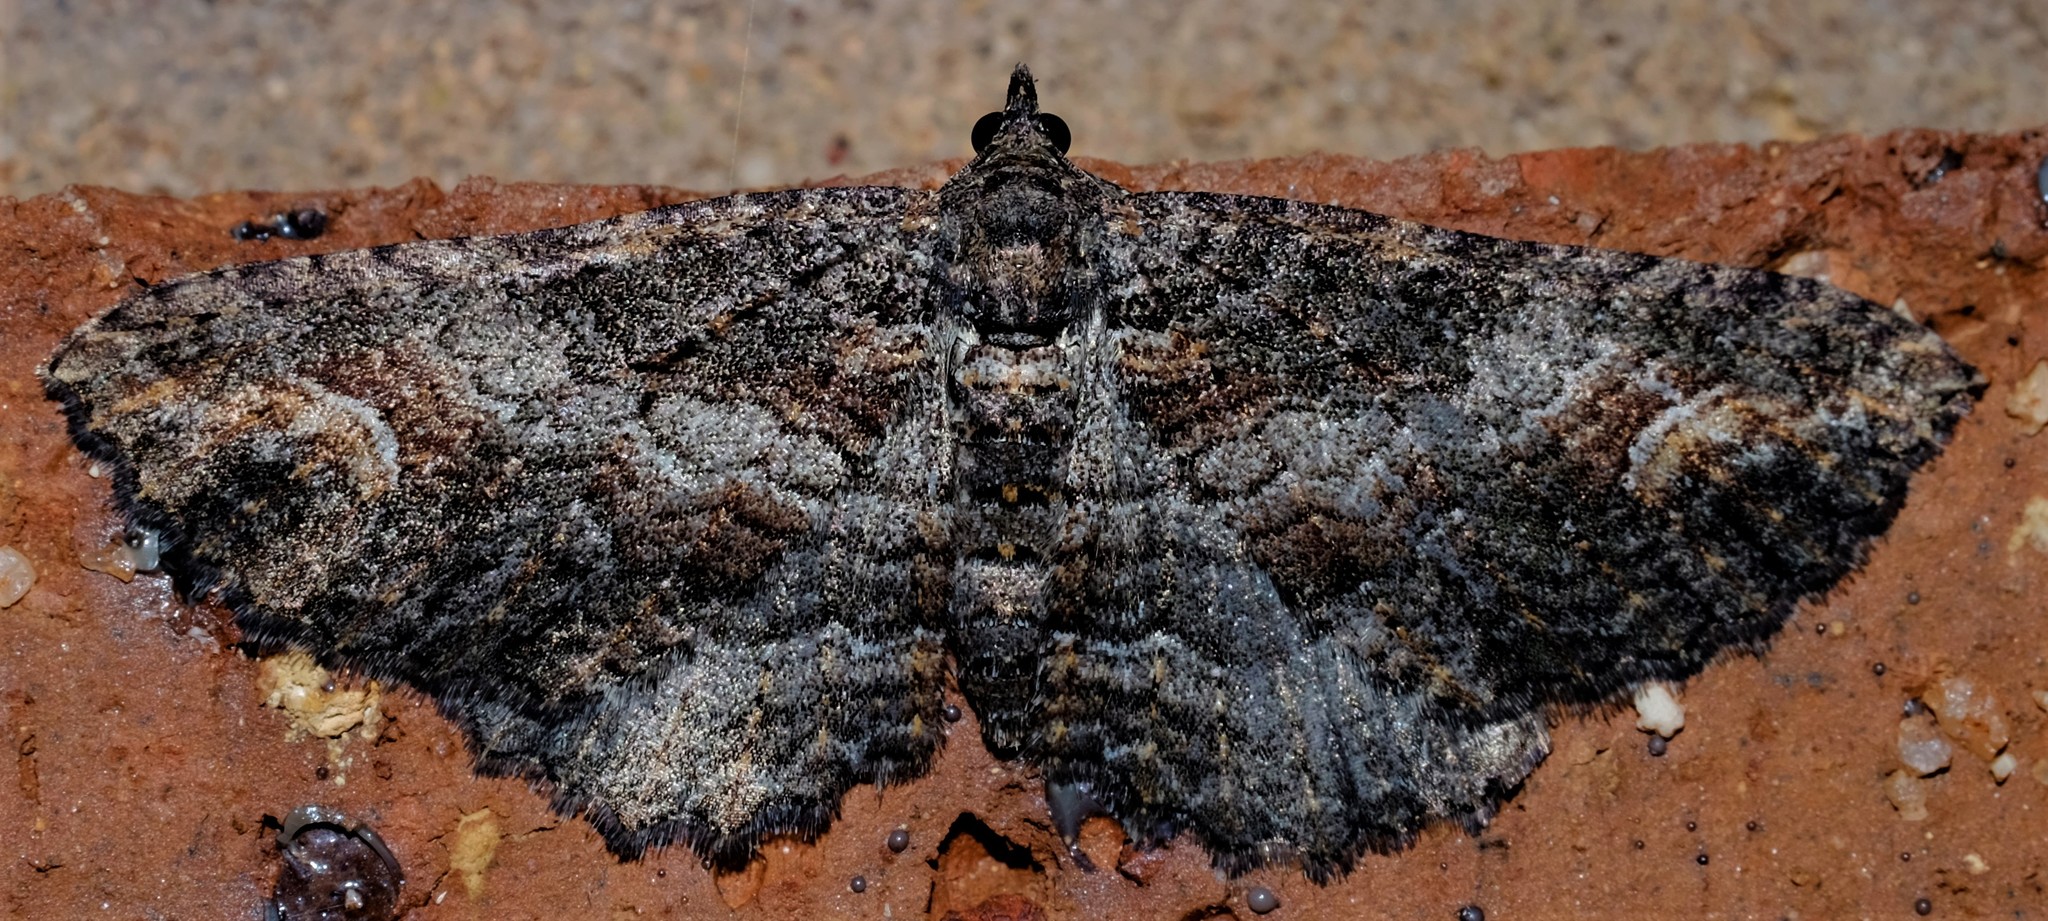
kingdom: Animalia
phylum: Arthropoda
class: Insecta
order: Lepidoptera
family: Geometridae
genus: Eupithecia
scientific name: Eupithecia Eucymatoge scotodes
